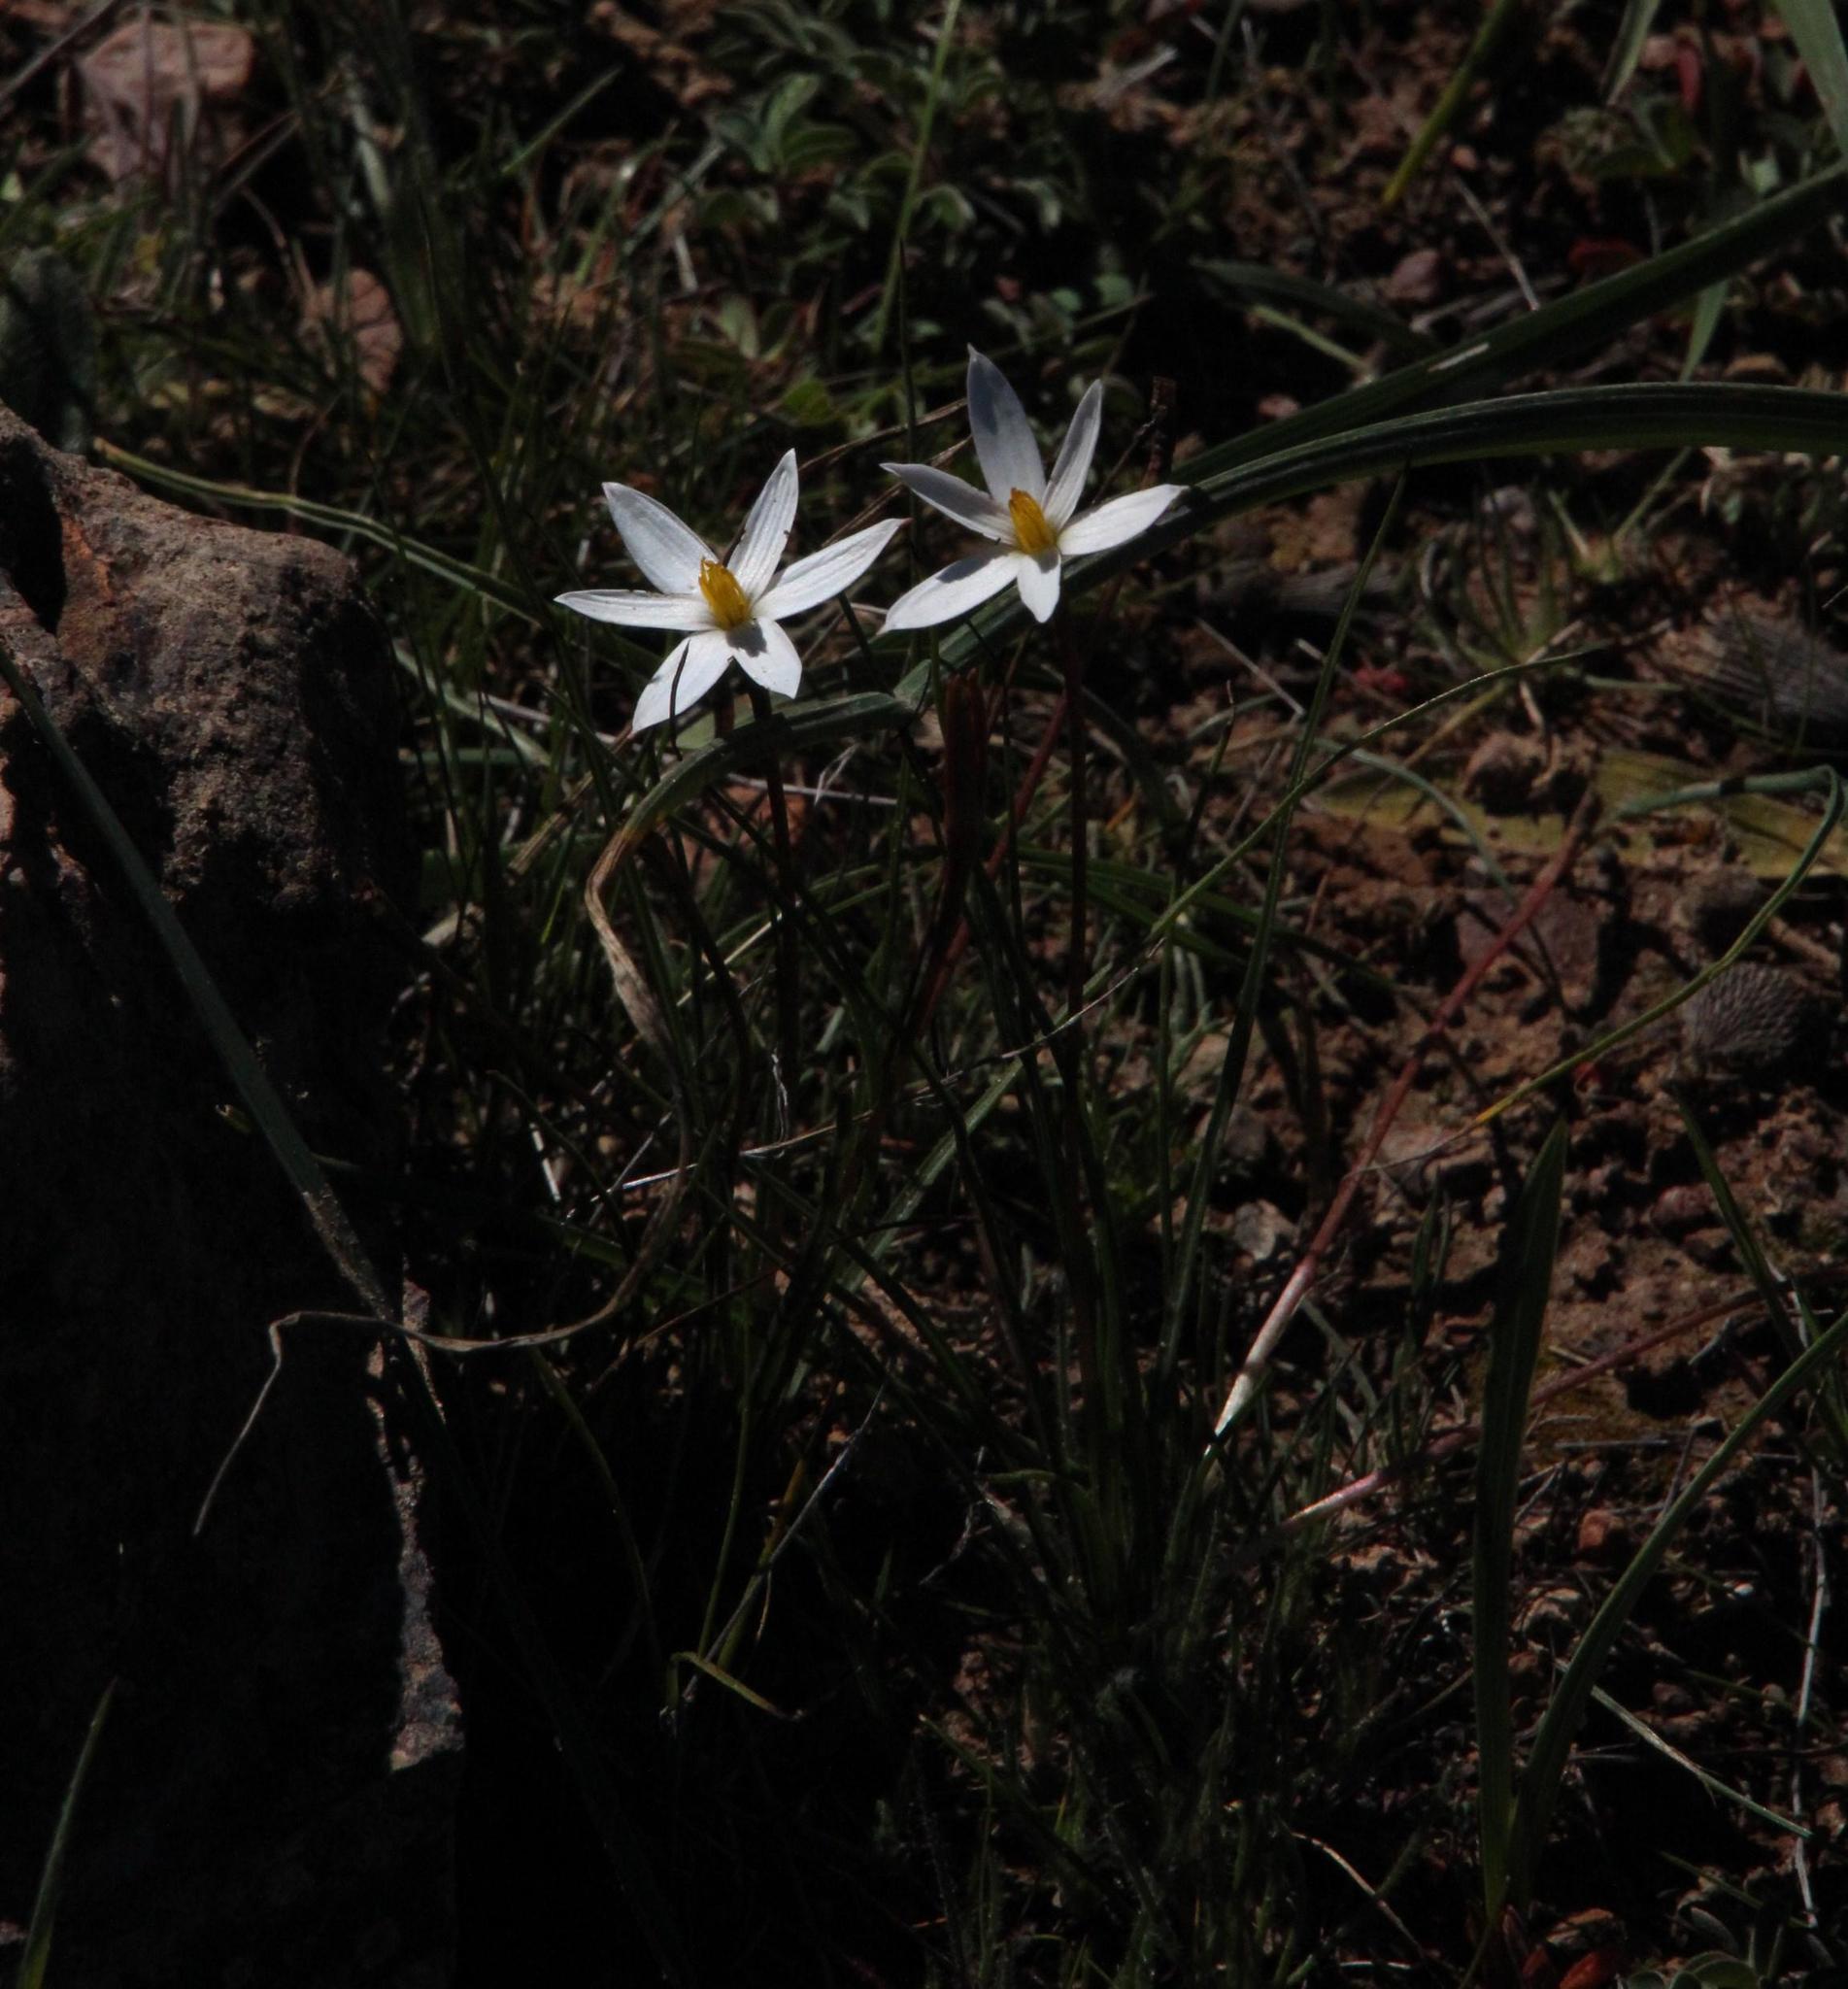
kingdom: Plantae
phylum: Tracheophyta
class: Liliopsida
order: Asparagales
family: Hypoxidaceae
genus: Pauridia
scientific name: Pauridia serrata
